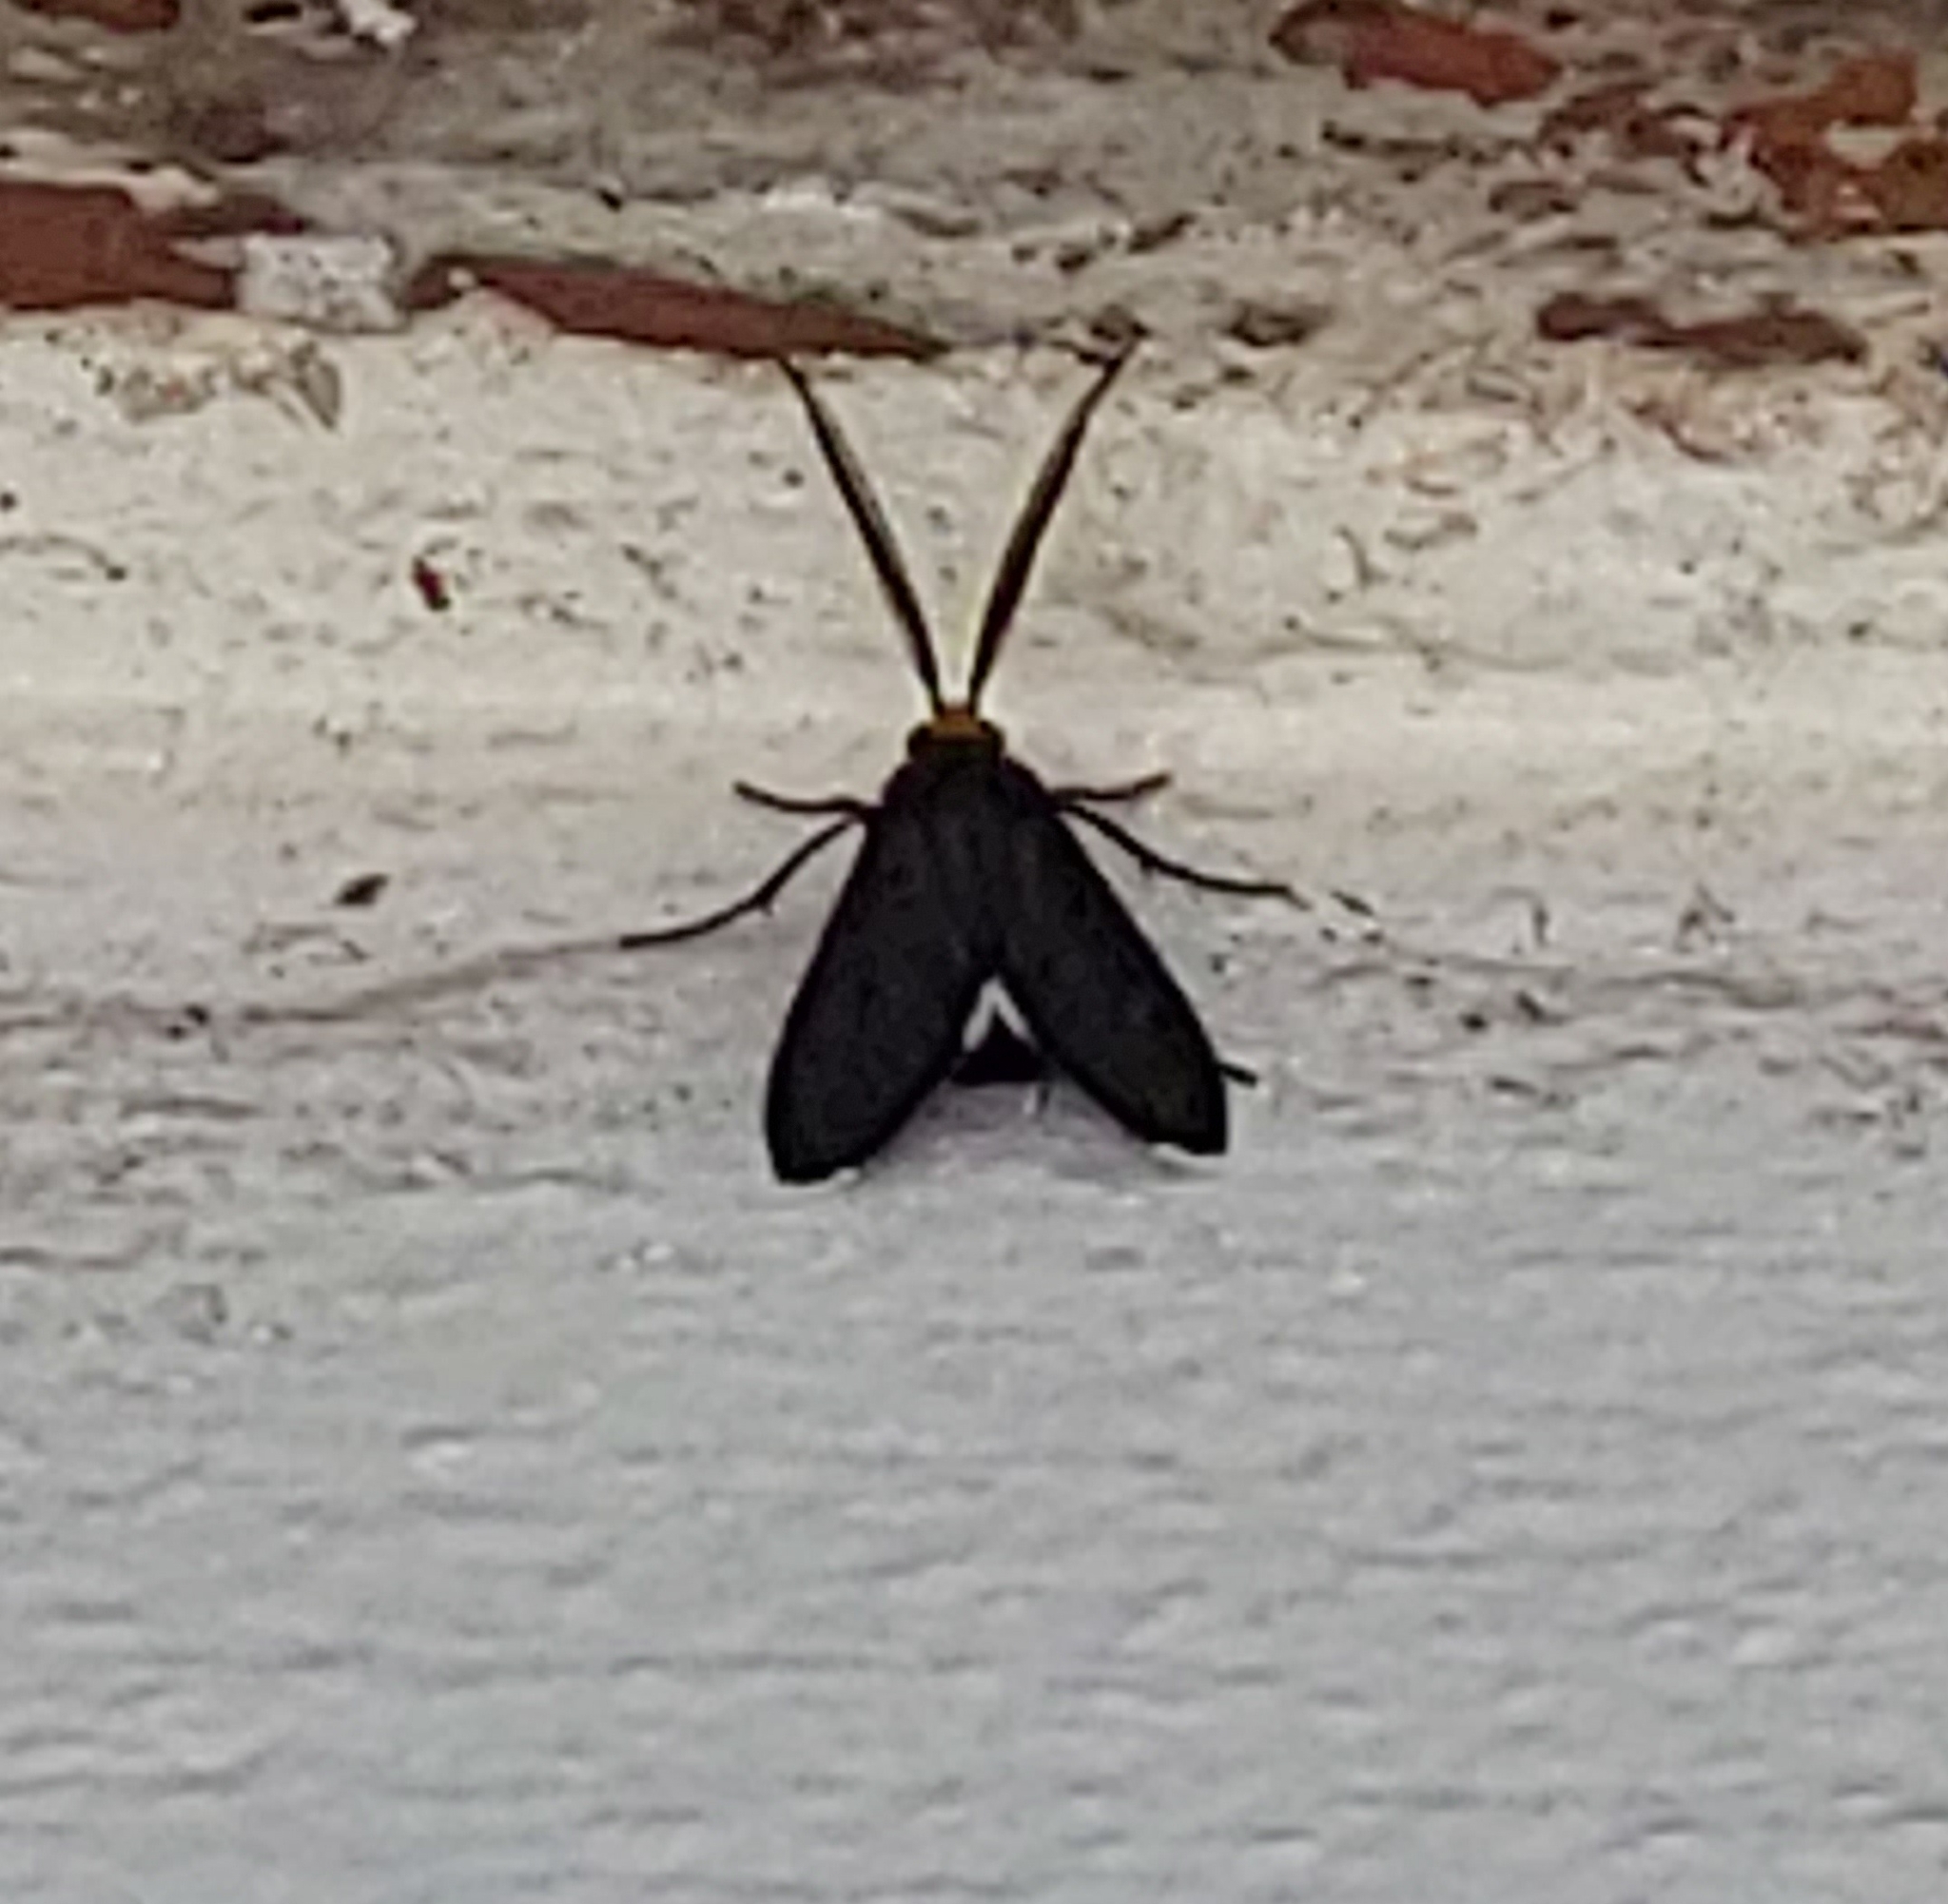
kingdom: Animalia
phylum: Arthropoda
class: Insecta
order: Lepidoptera
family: Erebidae
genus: Ctenucha
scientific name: Ctenucha rubriceps
